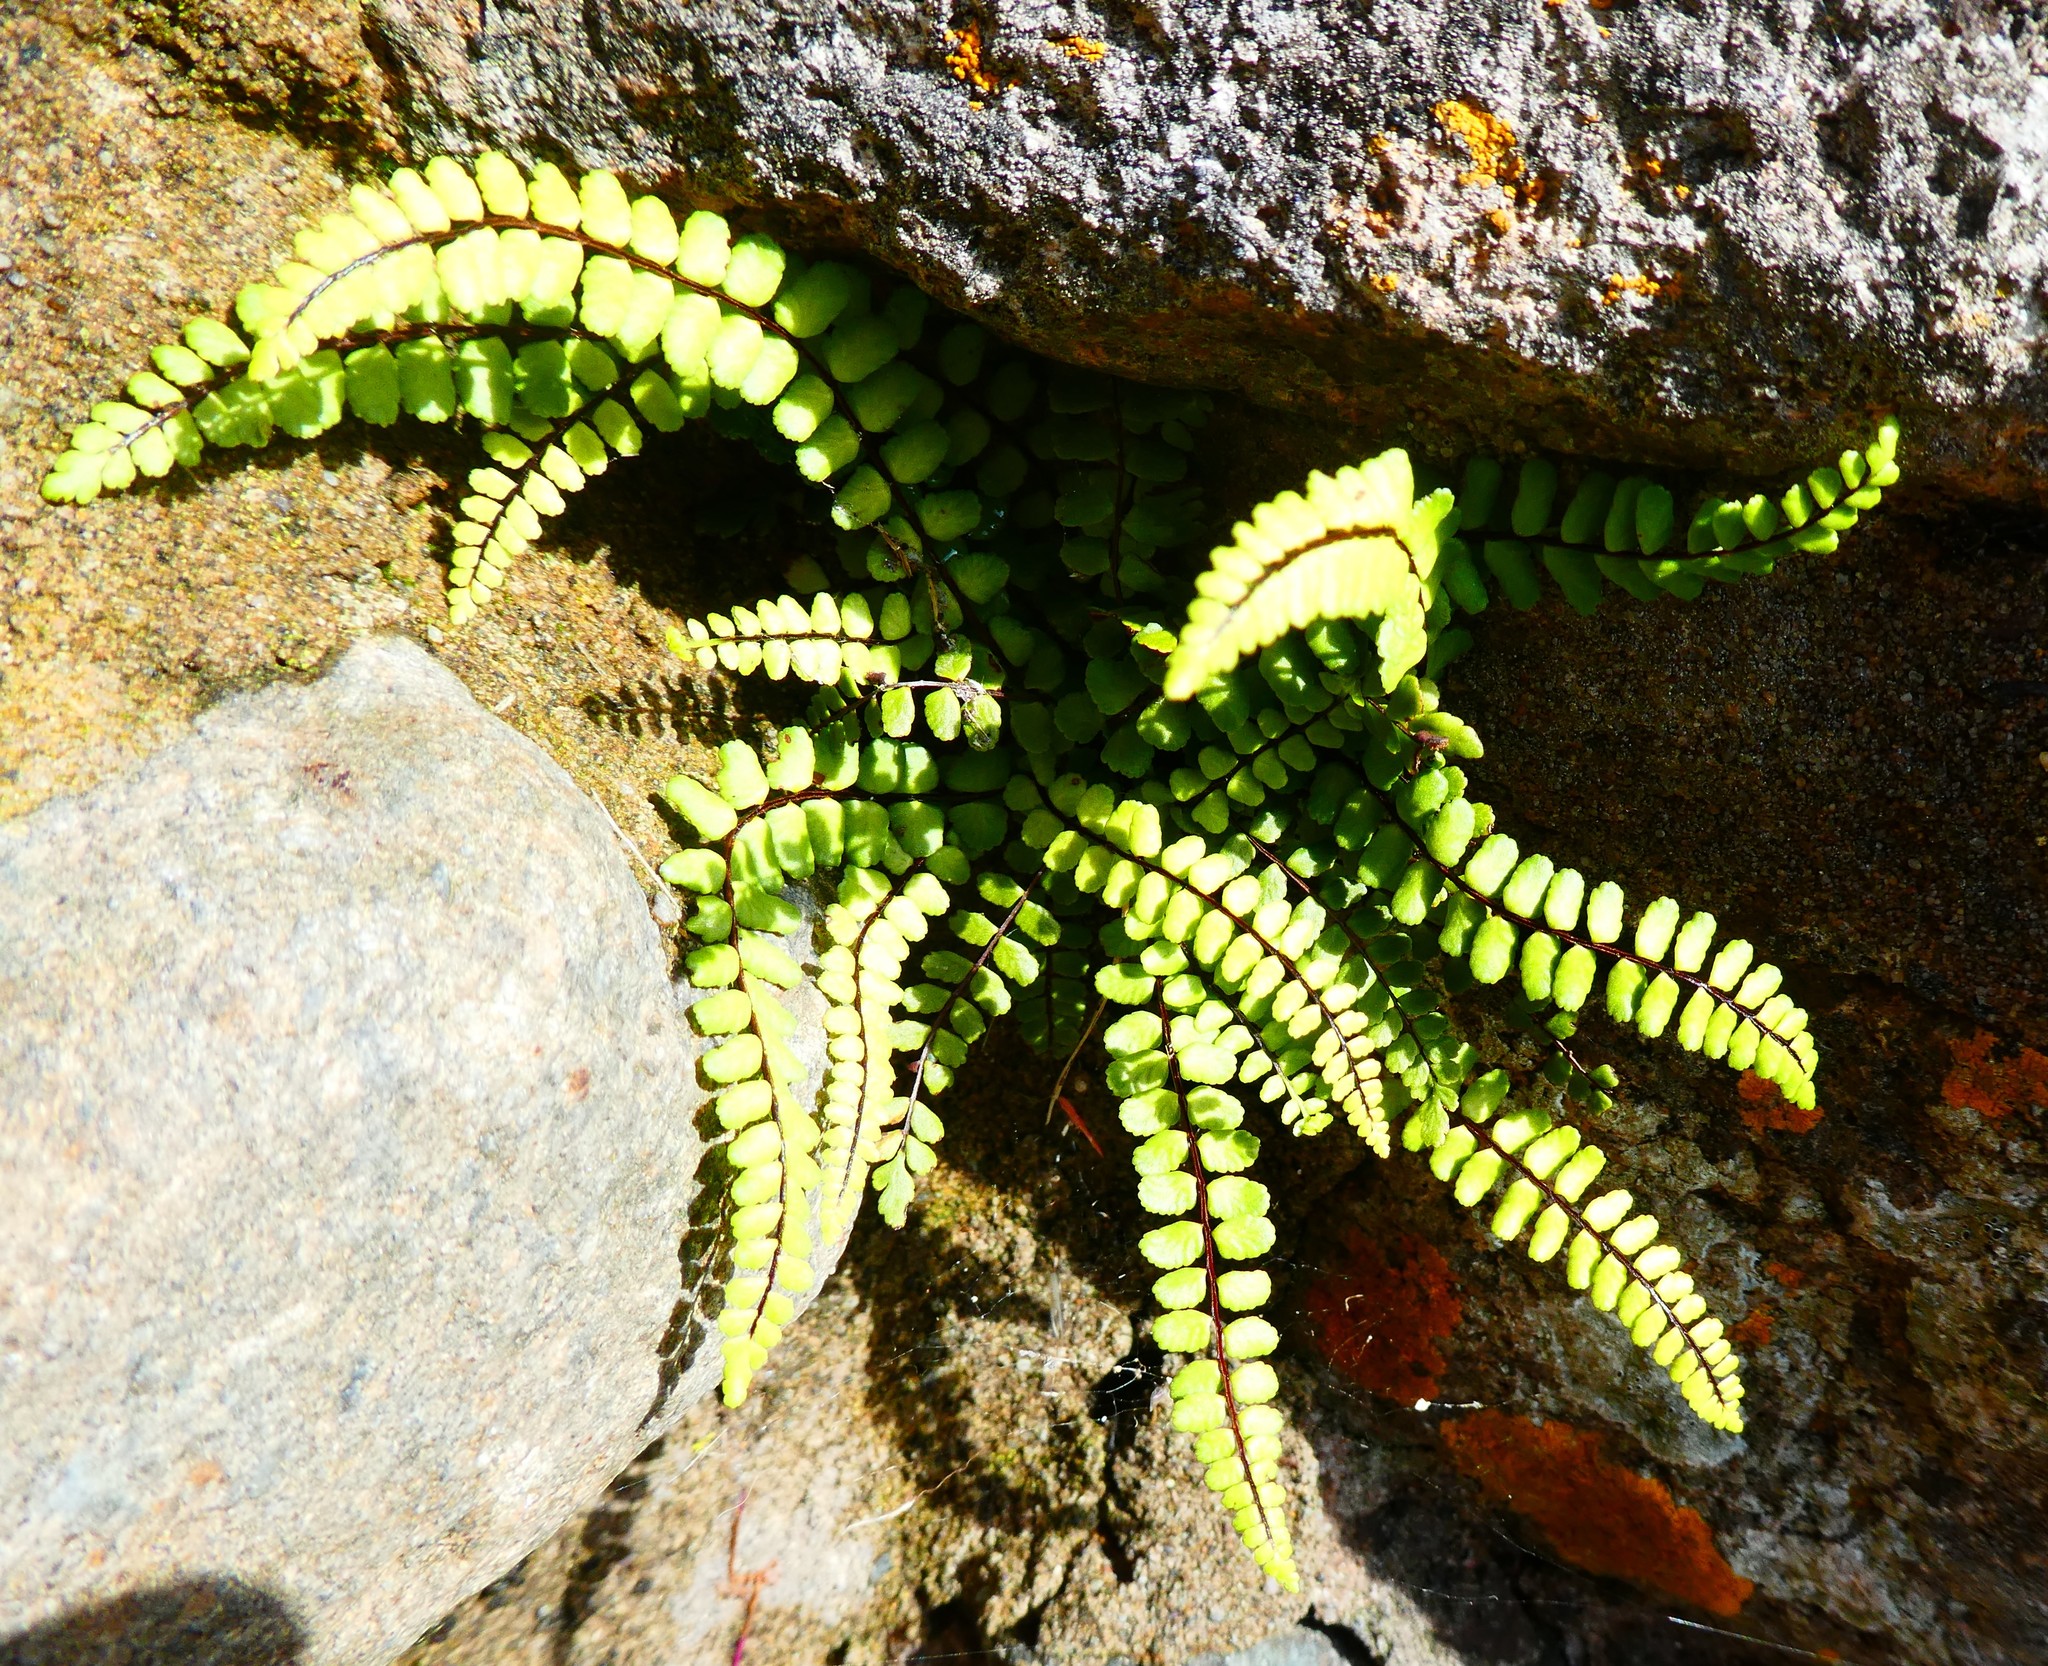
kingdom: Plantae
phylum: Tracheophyta
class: Polypodiopsida
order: Polypodiales
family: Aspleniaceae
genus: Asplenium
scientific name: Asplenium trichomanes
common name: Maidenhair spleenwort
